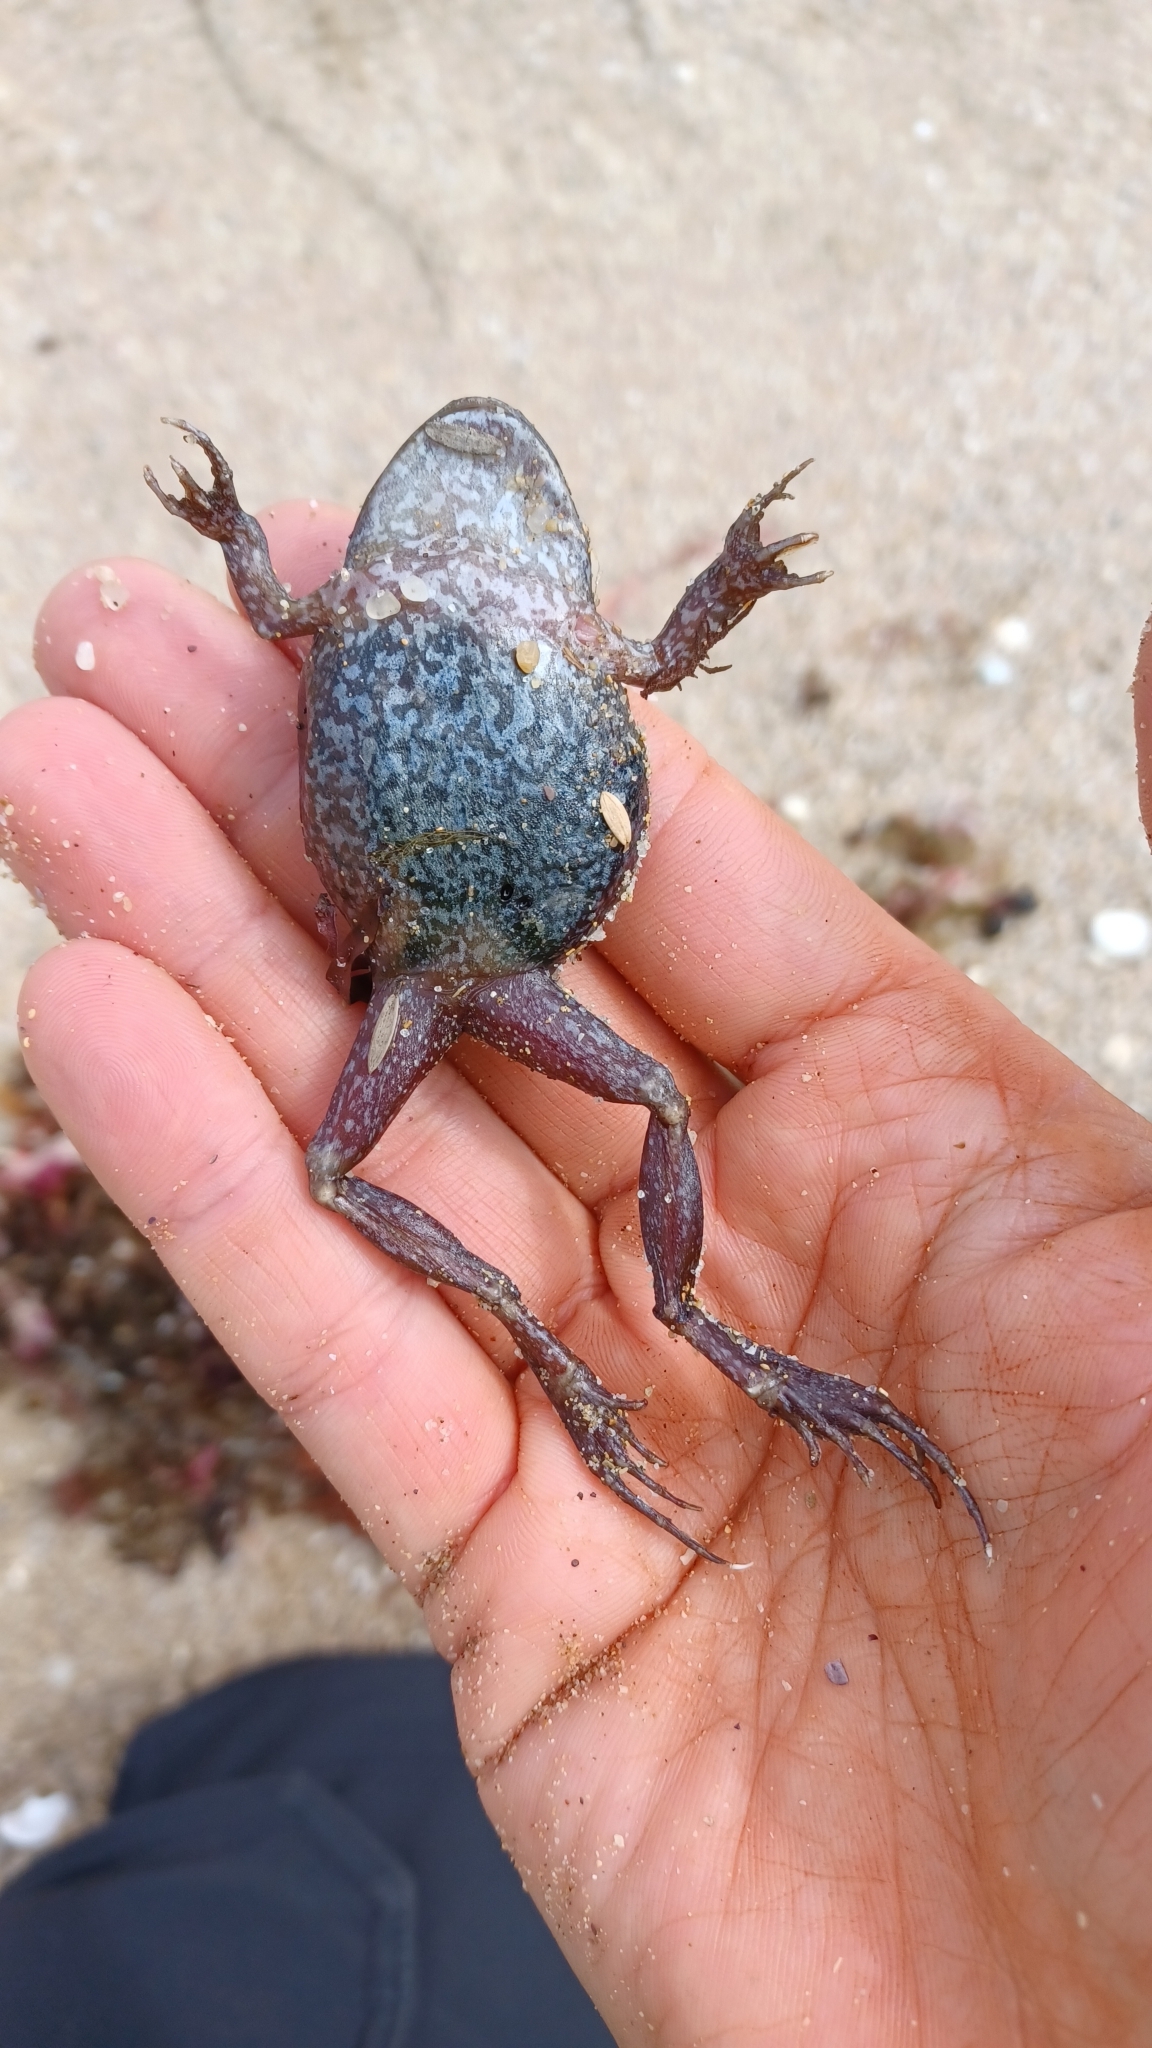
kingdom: Animalia
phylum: Chordata
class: Amphibia
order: Anura
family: Limnodynastidae
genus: Limnodynastes
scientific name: Limnodynastes dumerilii
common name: Banjo frog
